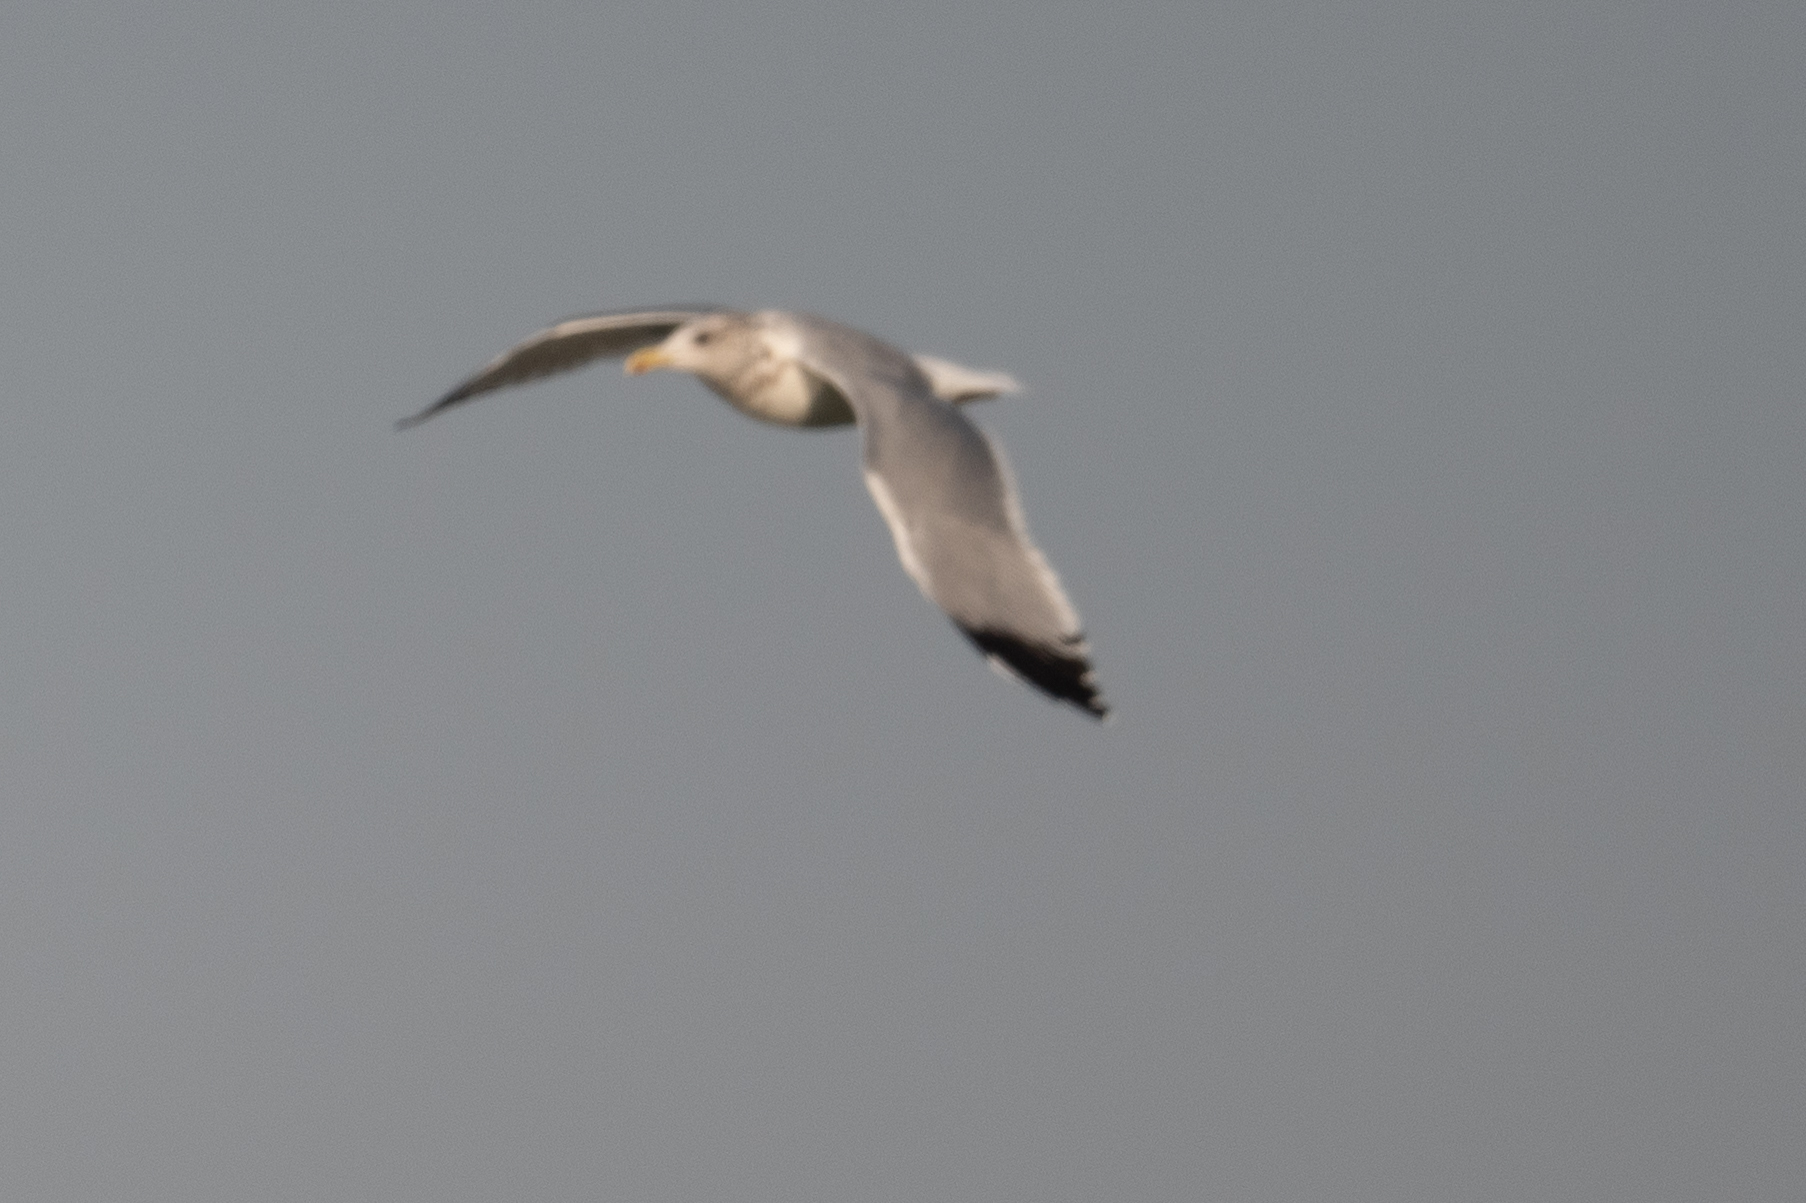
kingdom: Animalia
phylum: Chordata
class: Aves
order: Charadriiformes
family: Laridae
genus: Larus
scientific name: Larus californicus
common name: California gull
